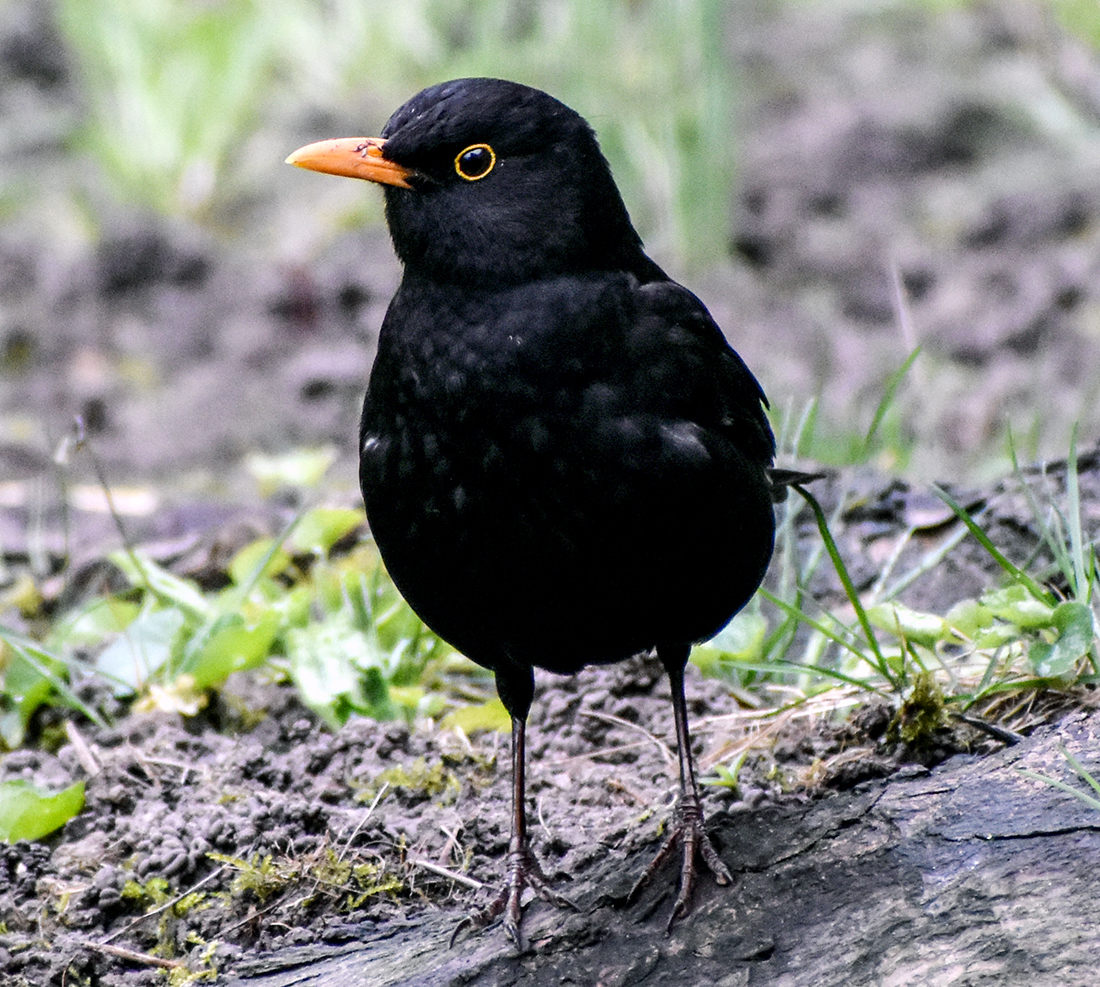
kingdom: Animalia
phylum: Chordata
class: Aves
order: Passeriformes
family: Turdidae
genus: Turdus
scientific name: Turdus merula
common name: Common blackbird
